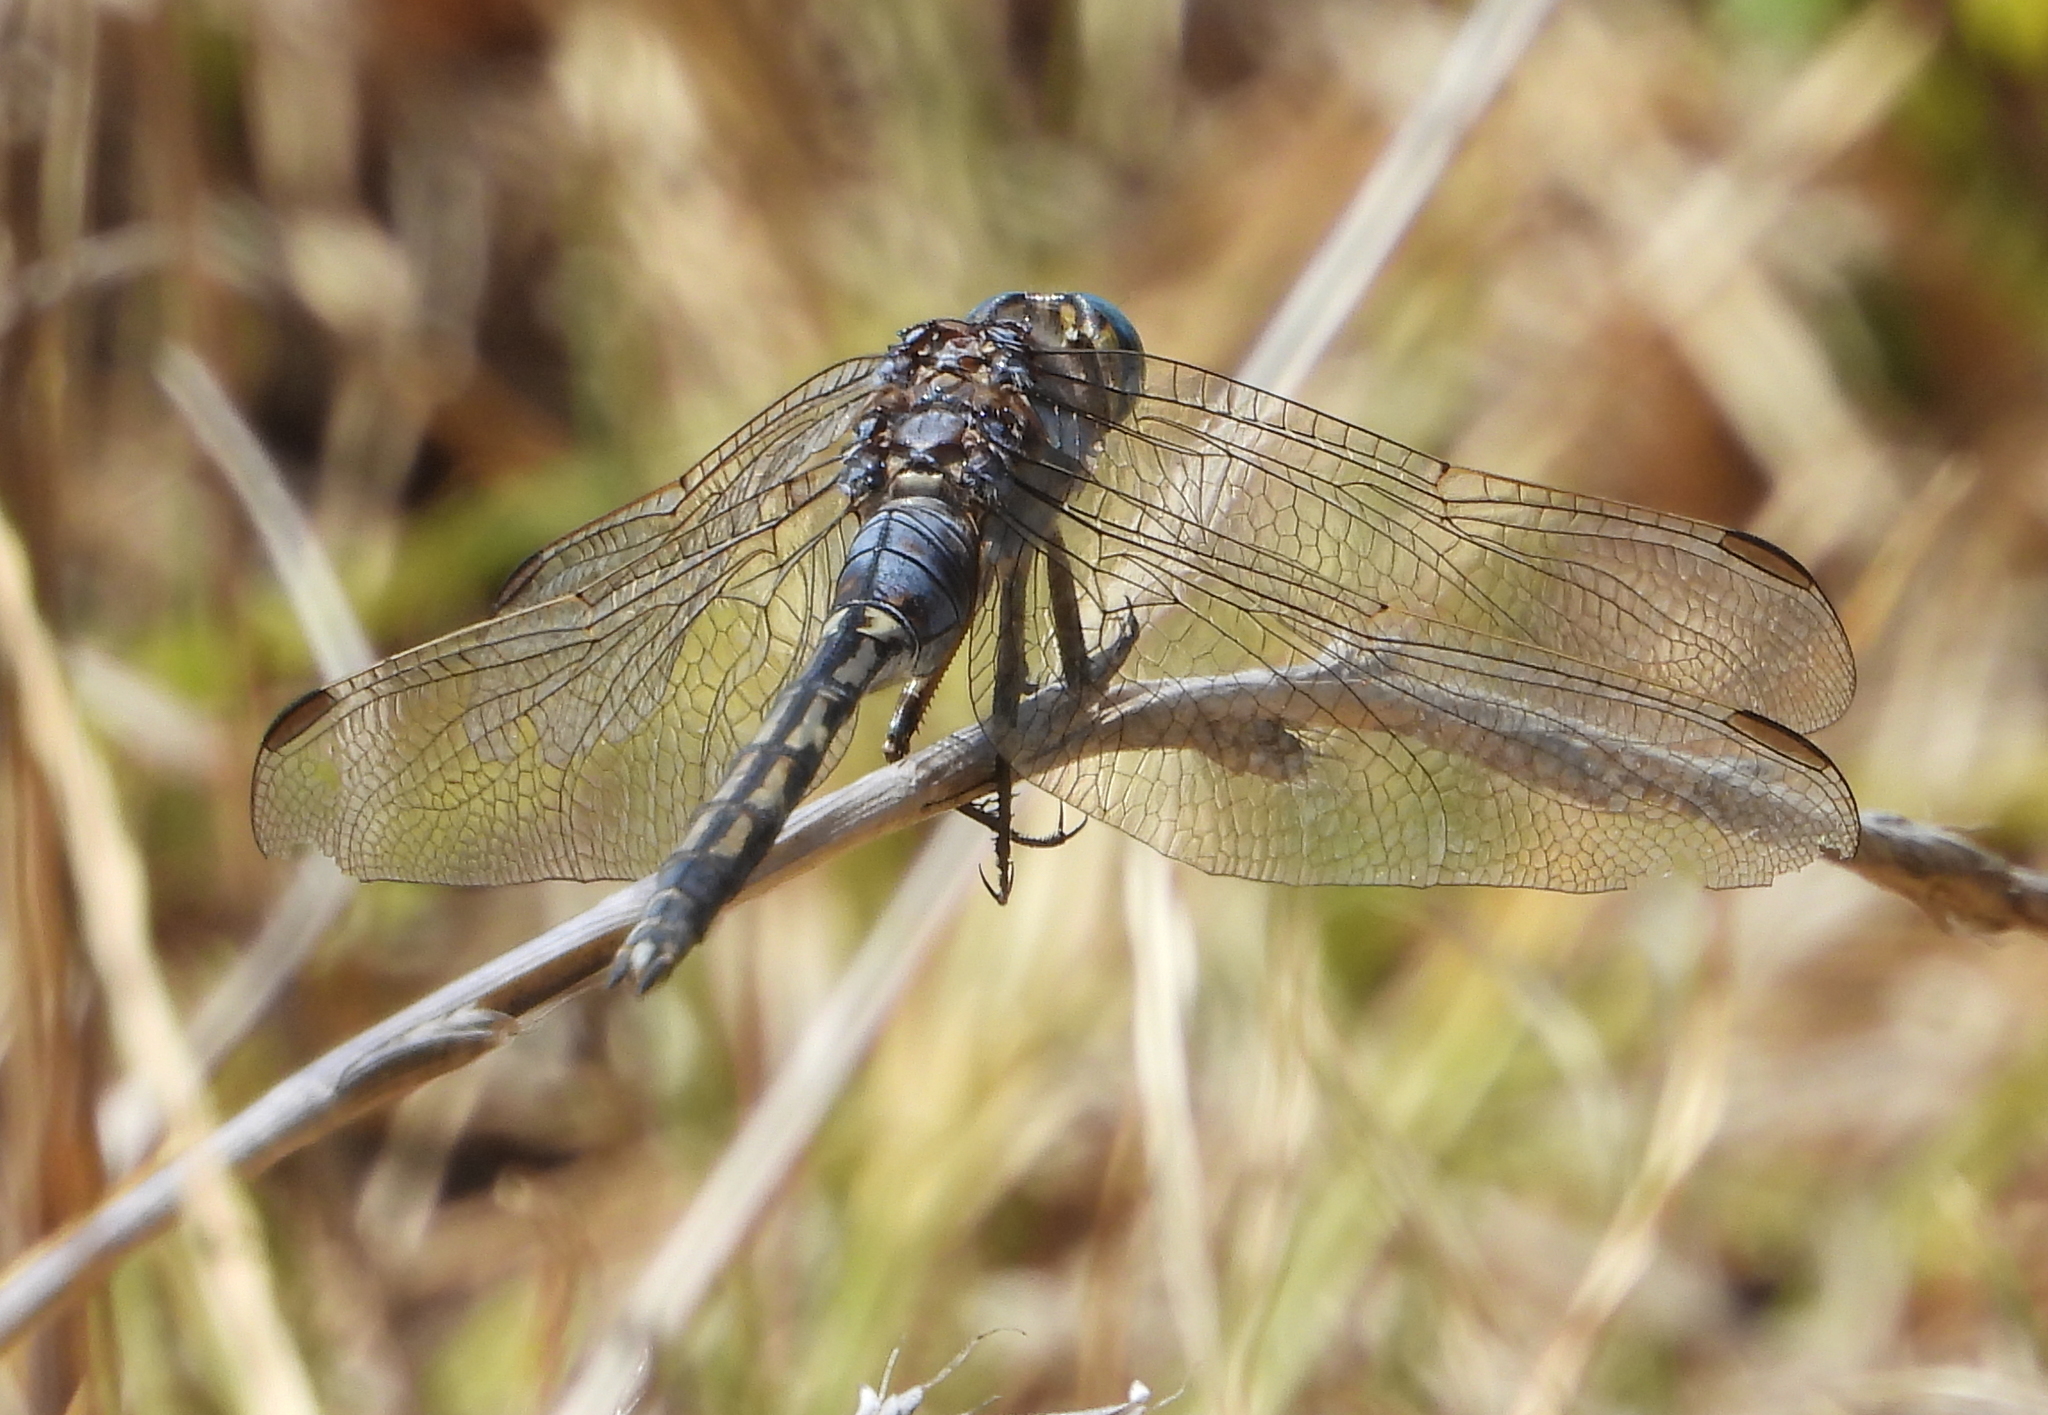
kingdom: Animalia
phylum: Arthropoda
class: Insecta
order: Odonata
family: Libellulidae
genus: Orthetrum
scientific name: Orthetrum trinacria
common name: Long skimmer
